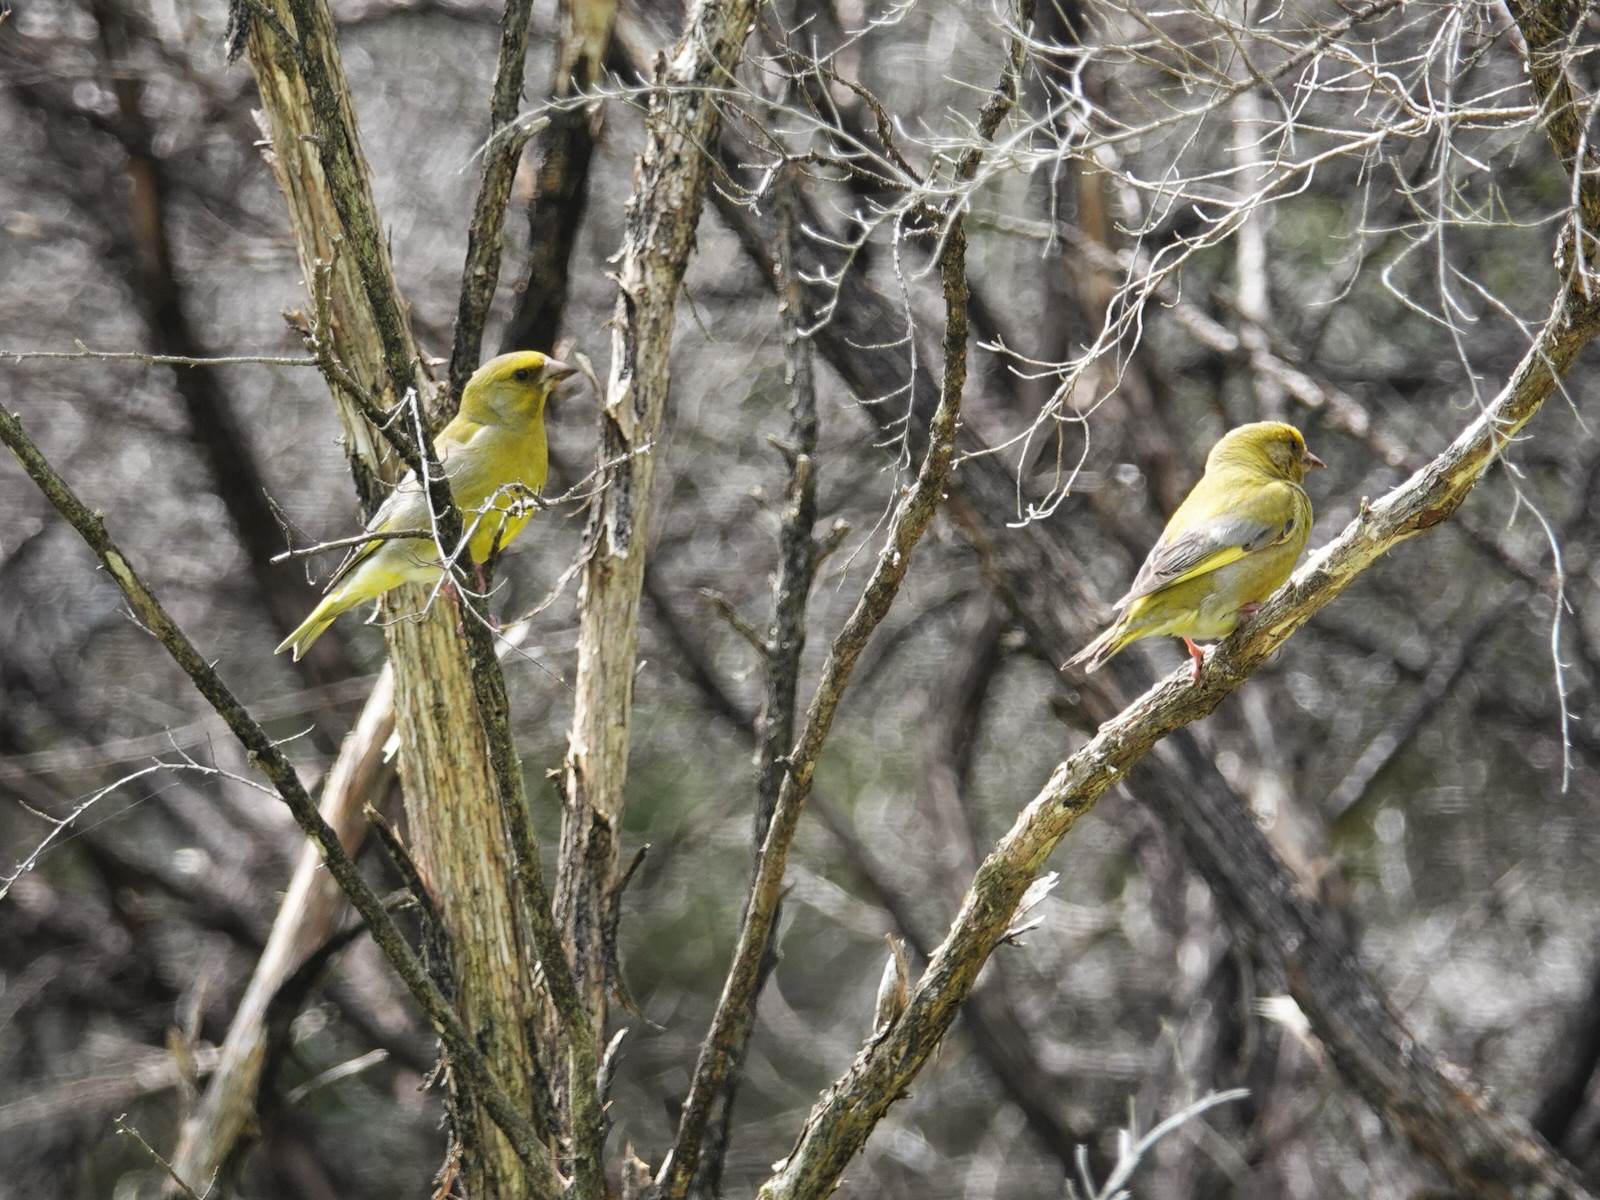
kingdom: Plantae
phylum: Tracheophyta
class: Liliopsida
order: Poales
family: Poaceae
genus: Chloris
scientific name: Chloris chloris
